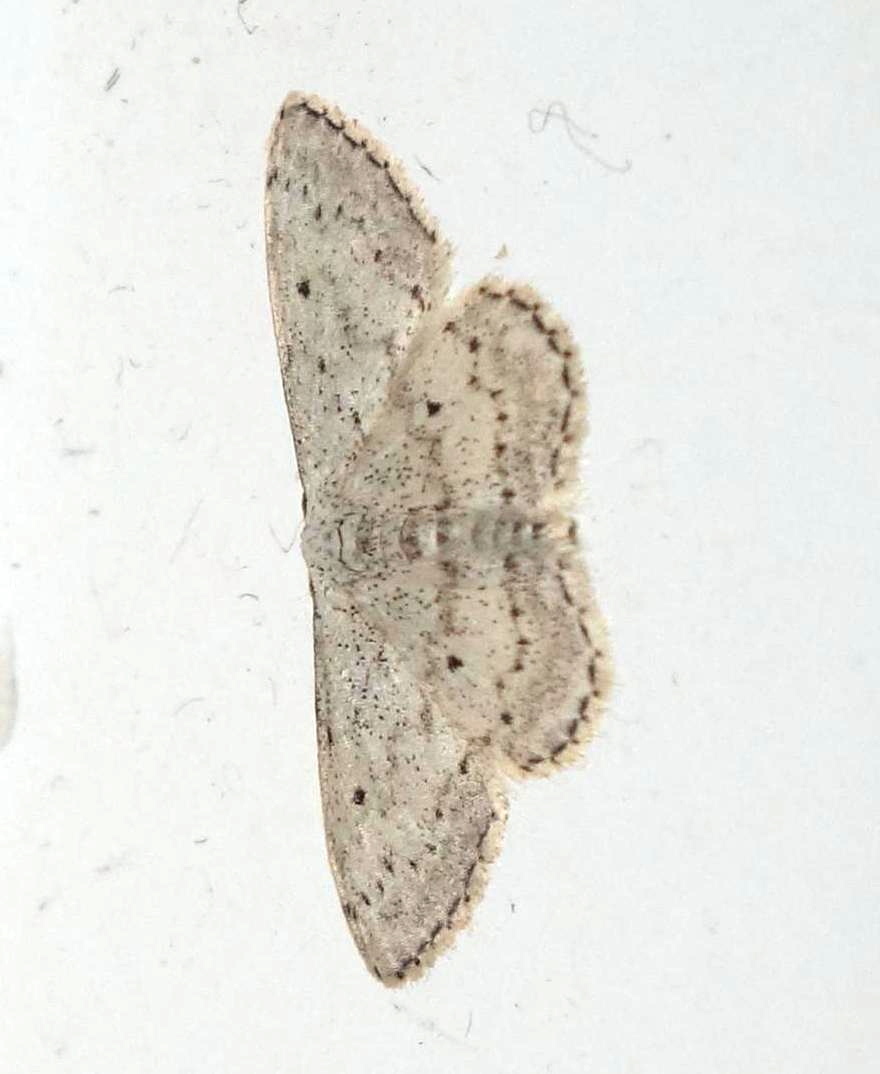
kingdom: Animalia
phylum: Arthropoda
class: Insecta
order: Lepidoptera
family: Geometridae
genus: Idaea
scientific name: Idaea seriata
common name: Small dusty wave
